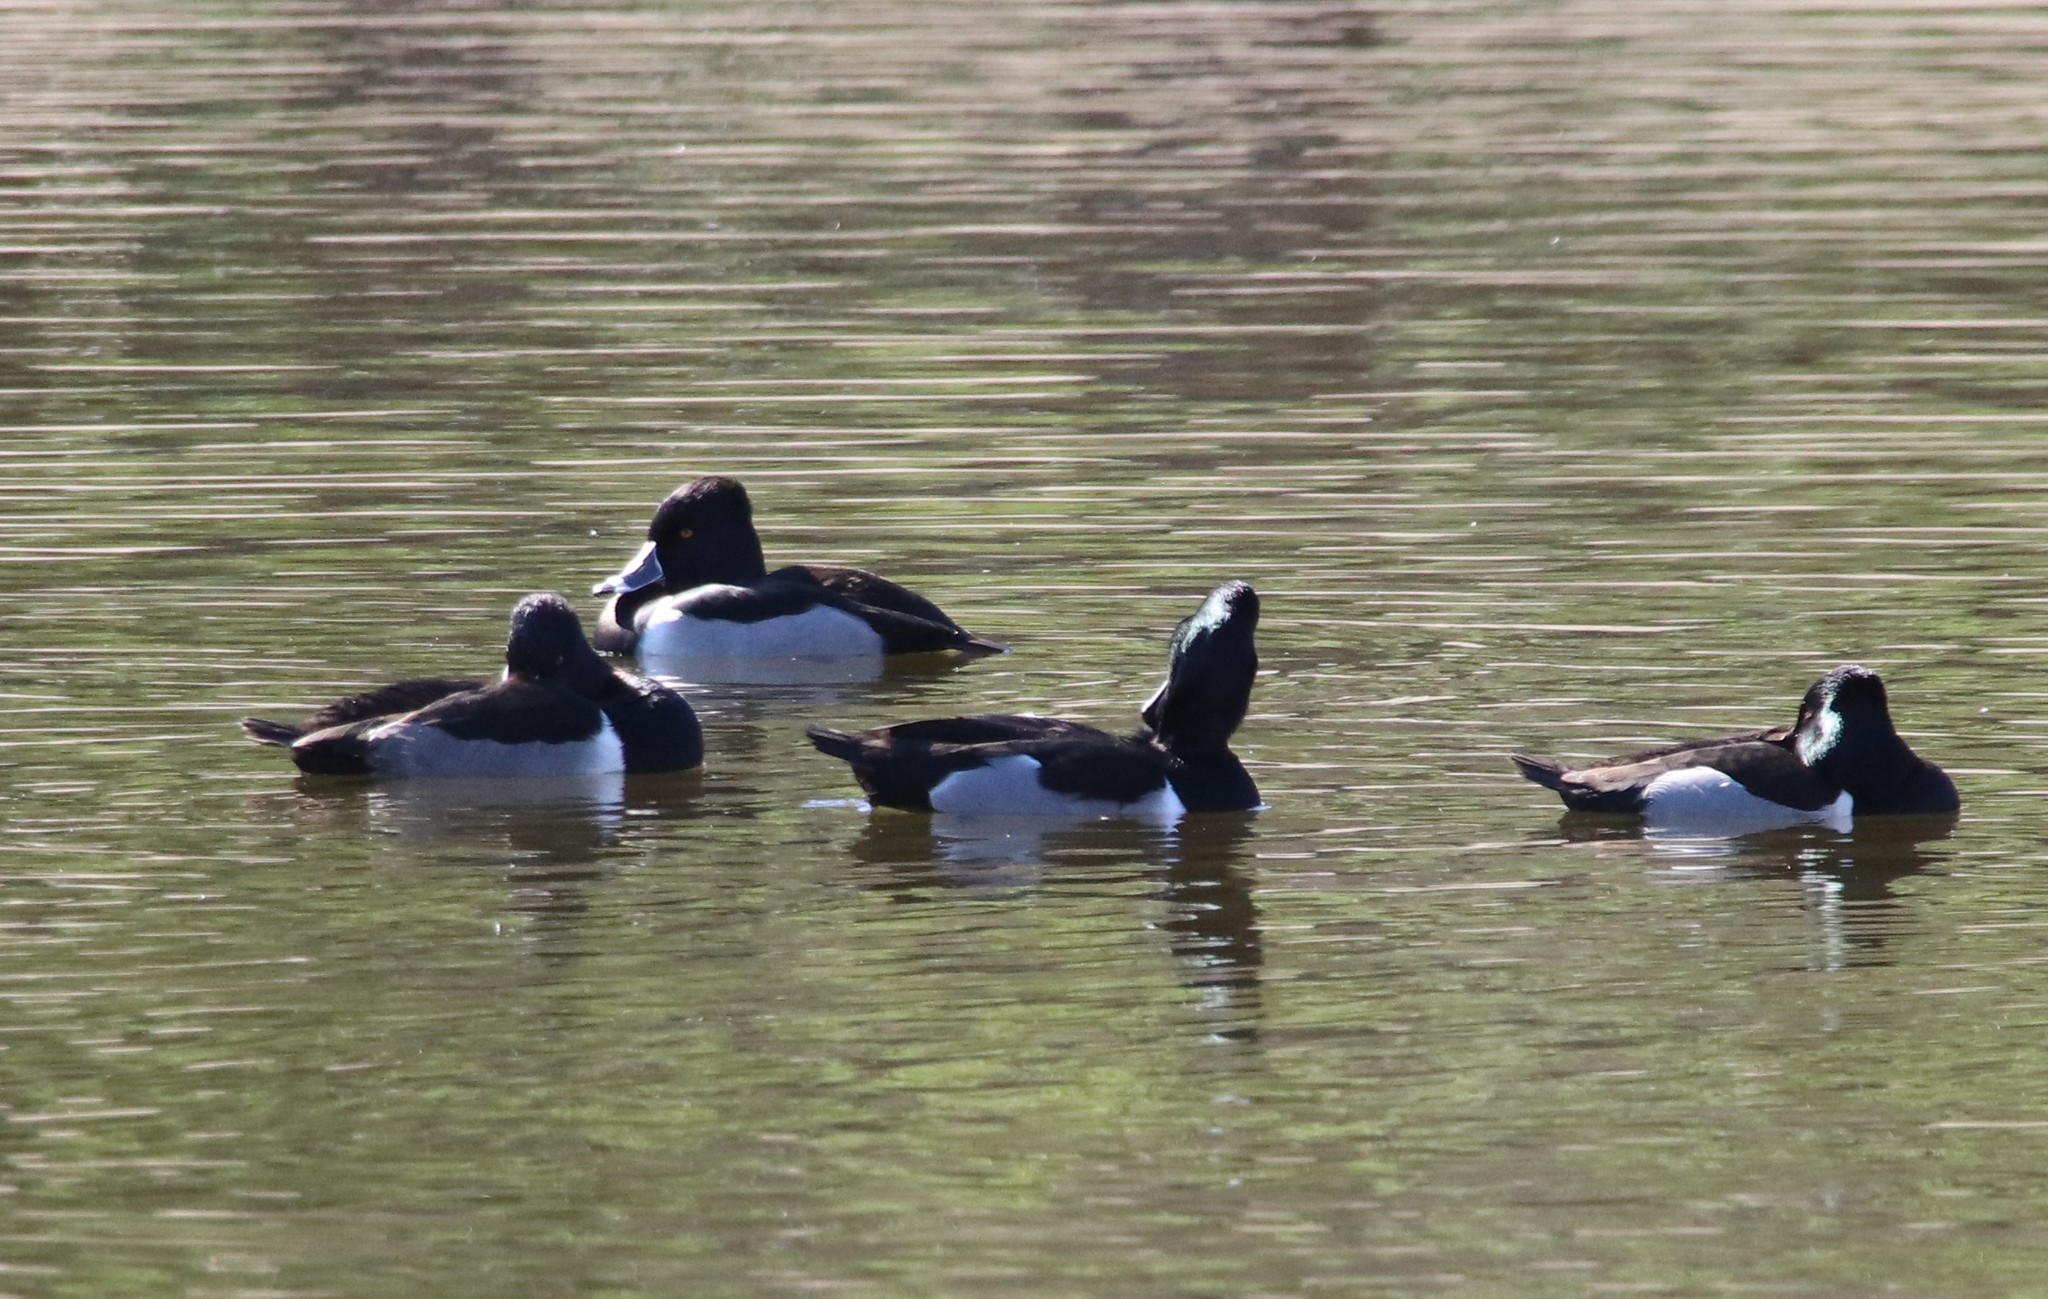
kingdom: Animalia
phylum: Chordata
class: Aves
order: Anseriformes
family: Anatidae
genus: Aythya
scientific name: Aythya collaris
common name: Ring-necked duck
